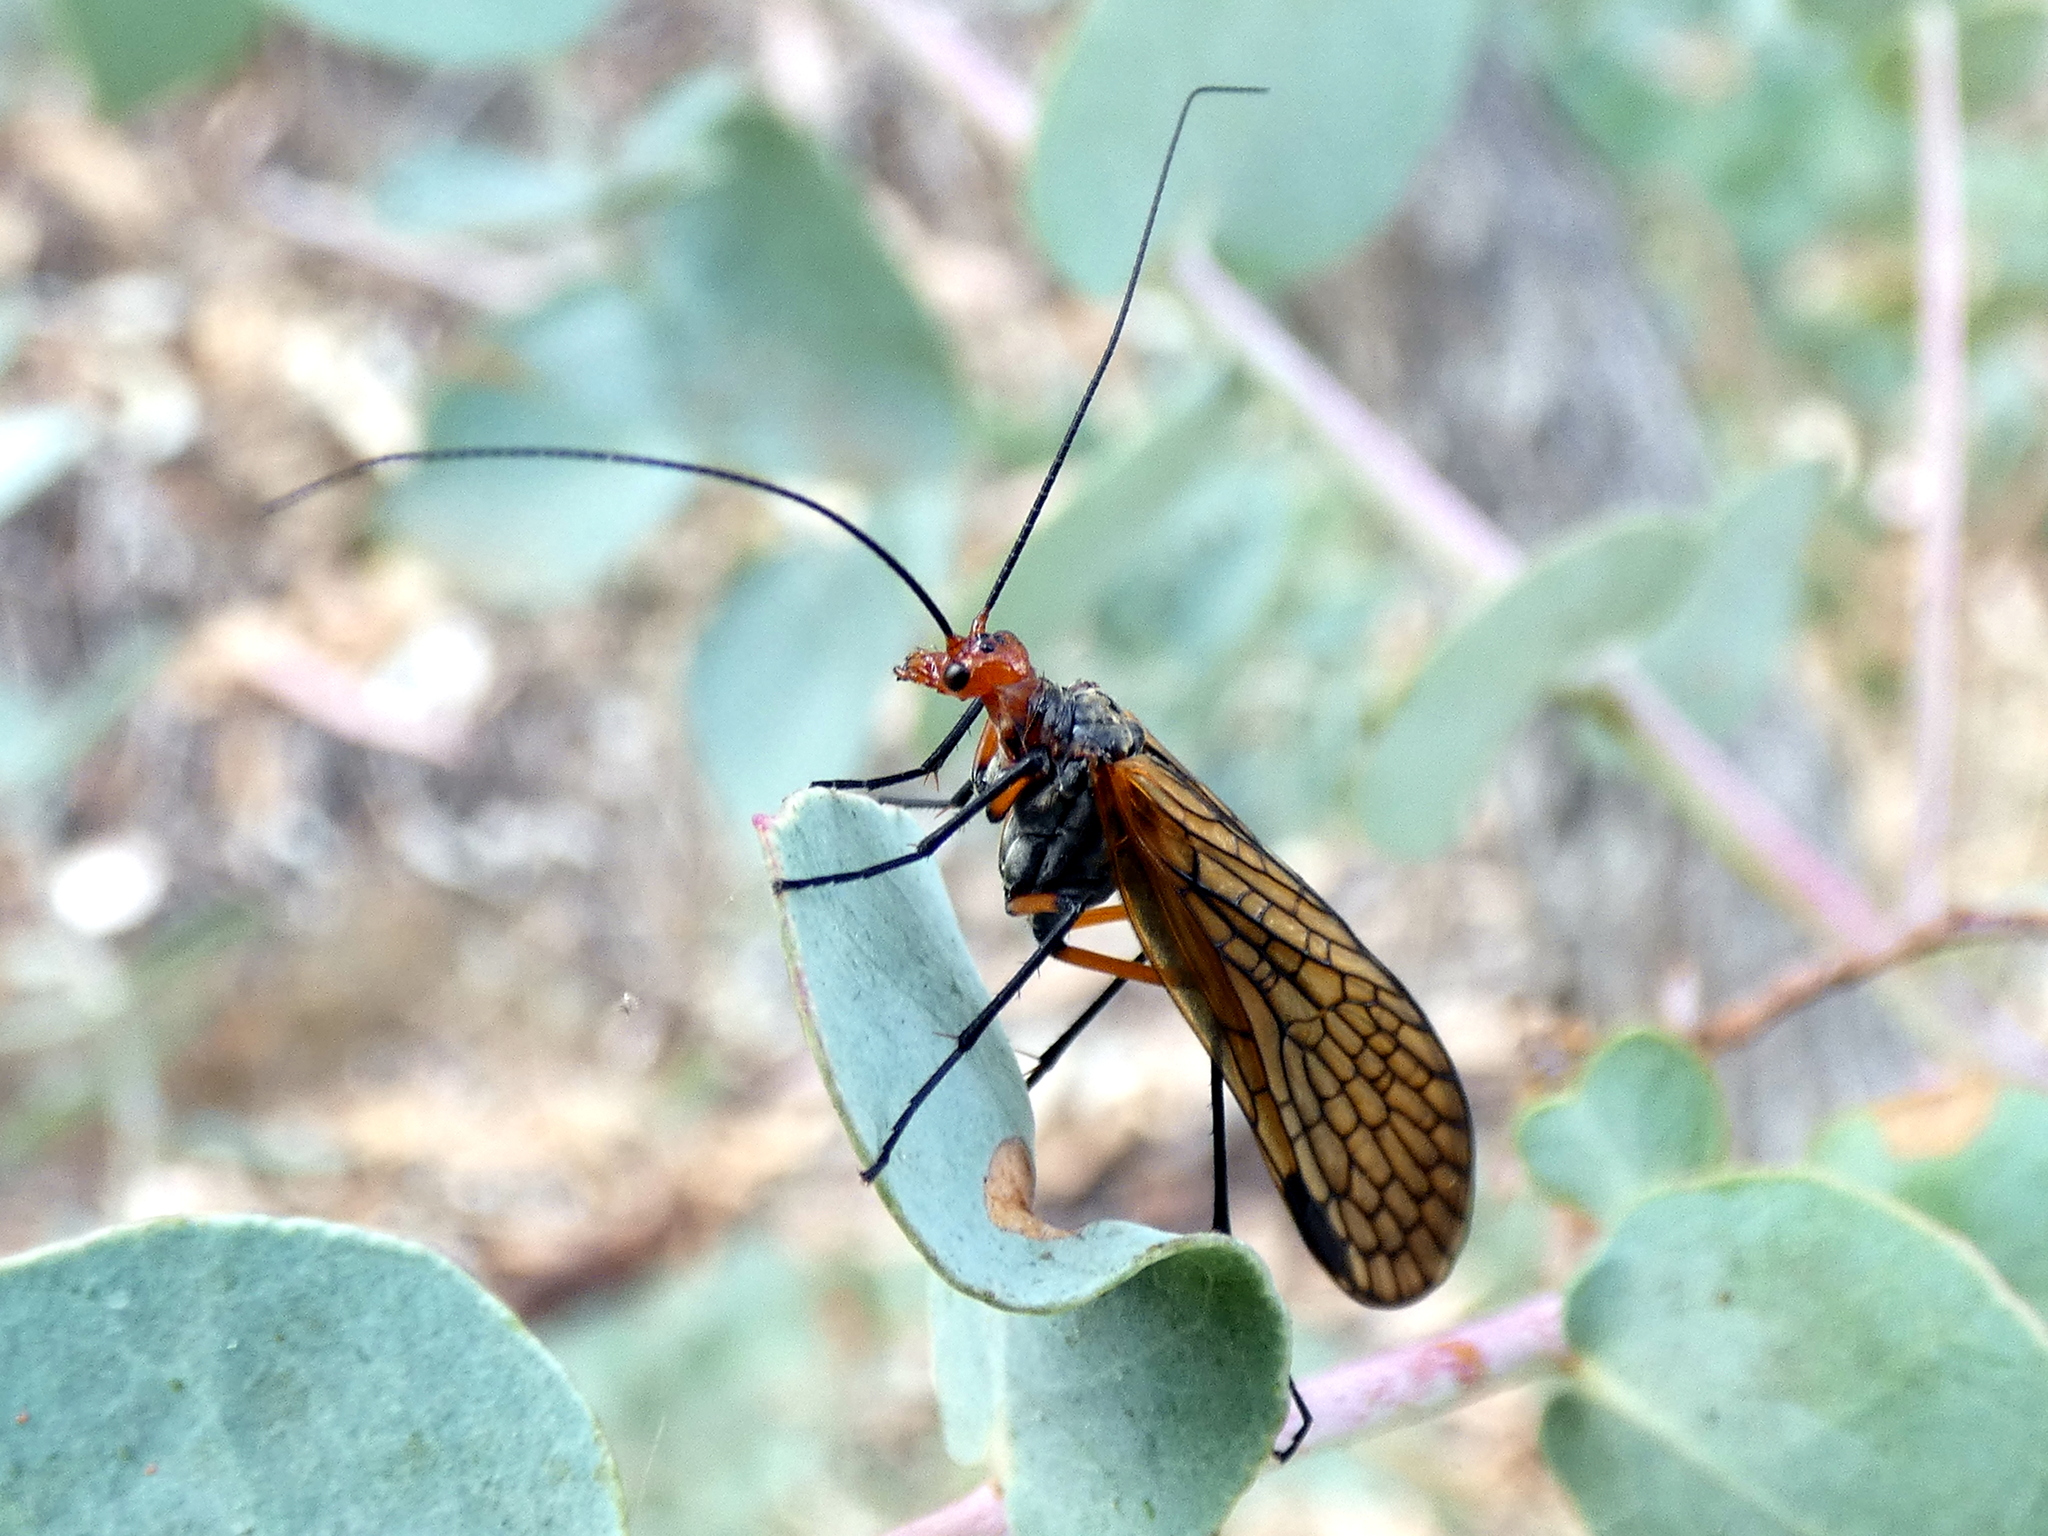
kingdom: Animalia
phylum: Arthropoda
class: Insecta
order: Mecoptera
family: Choristidae
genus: Chorista
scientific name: Chorista australis
